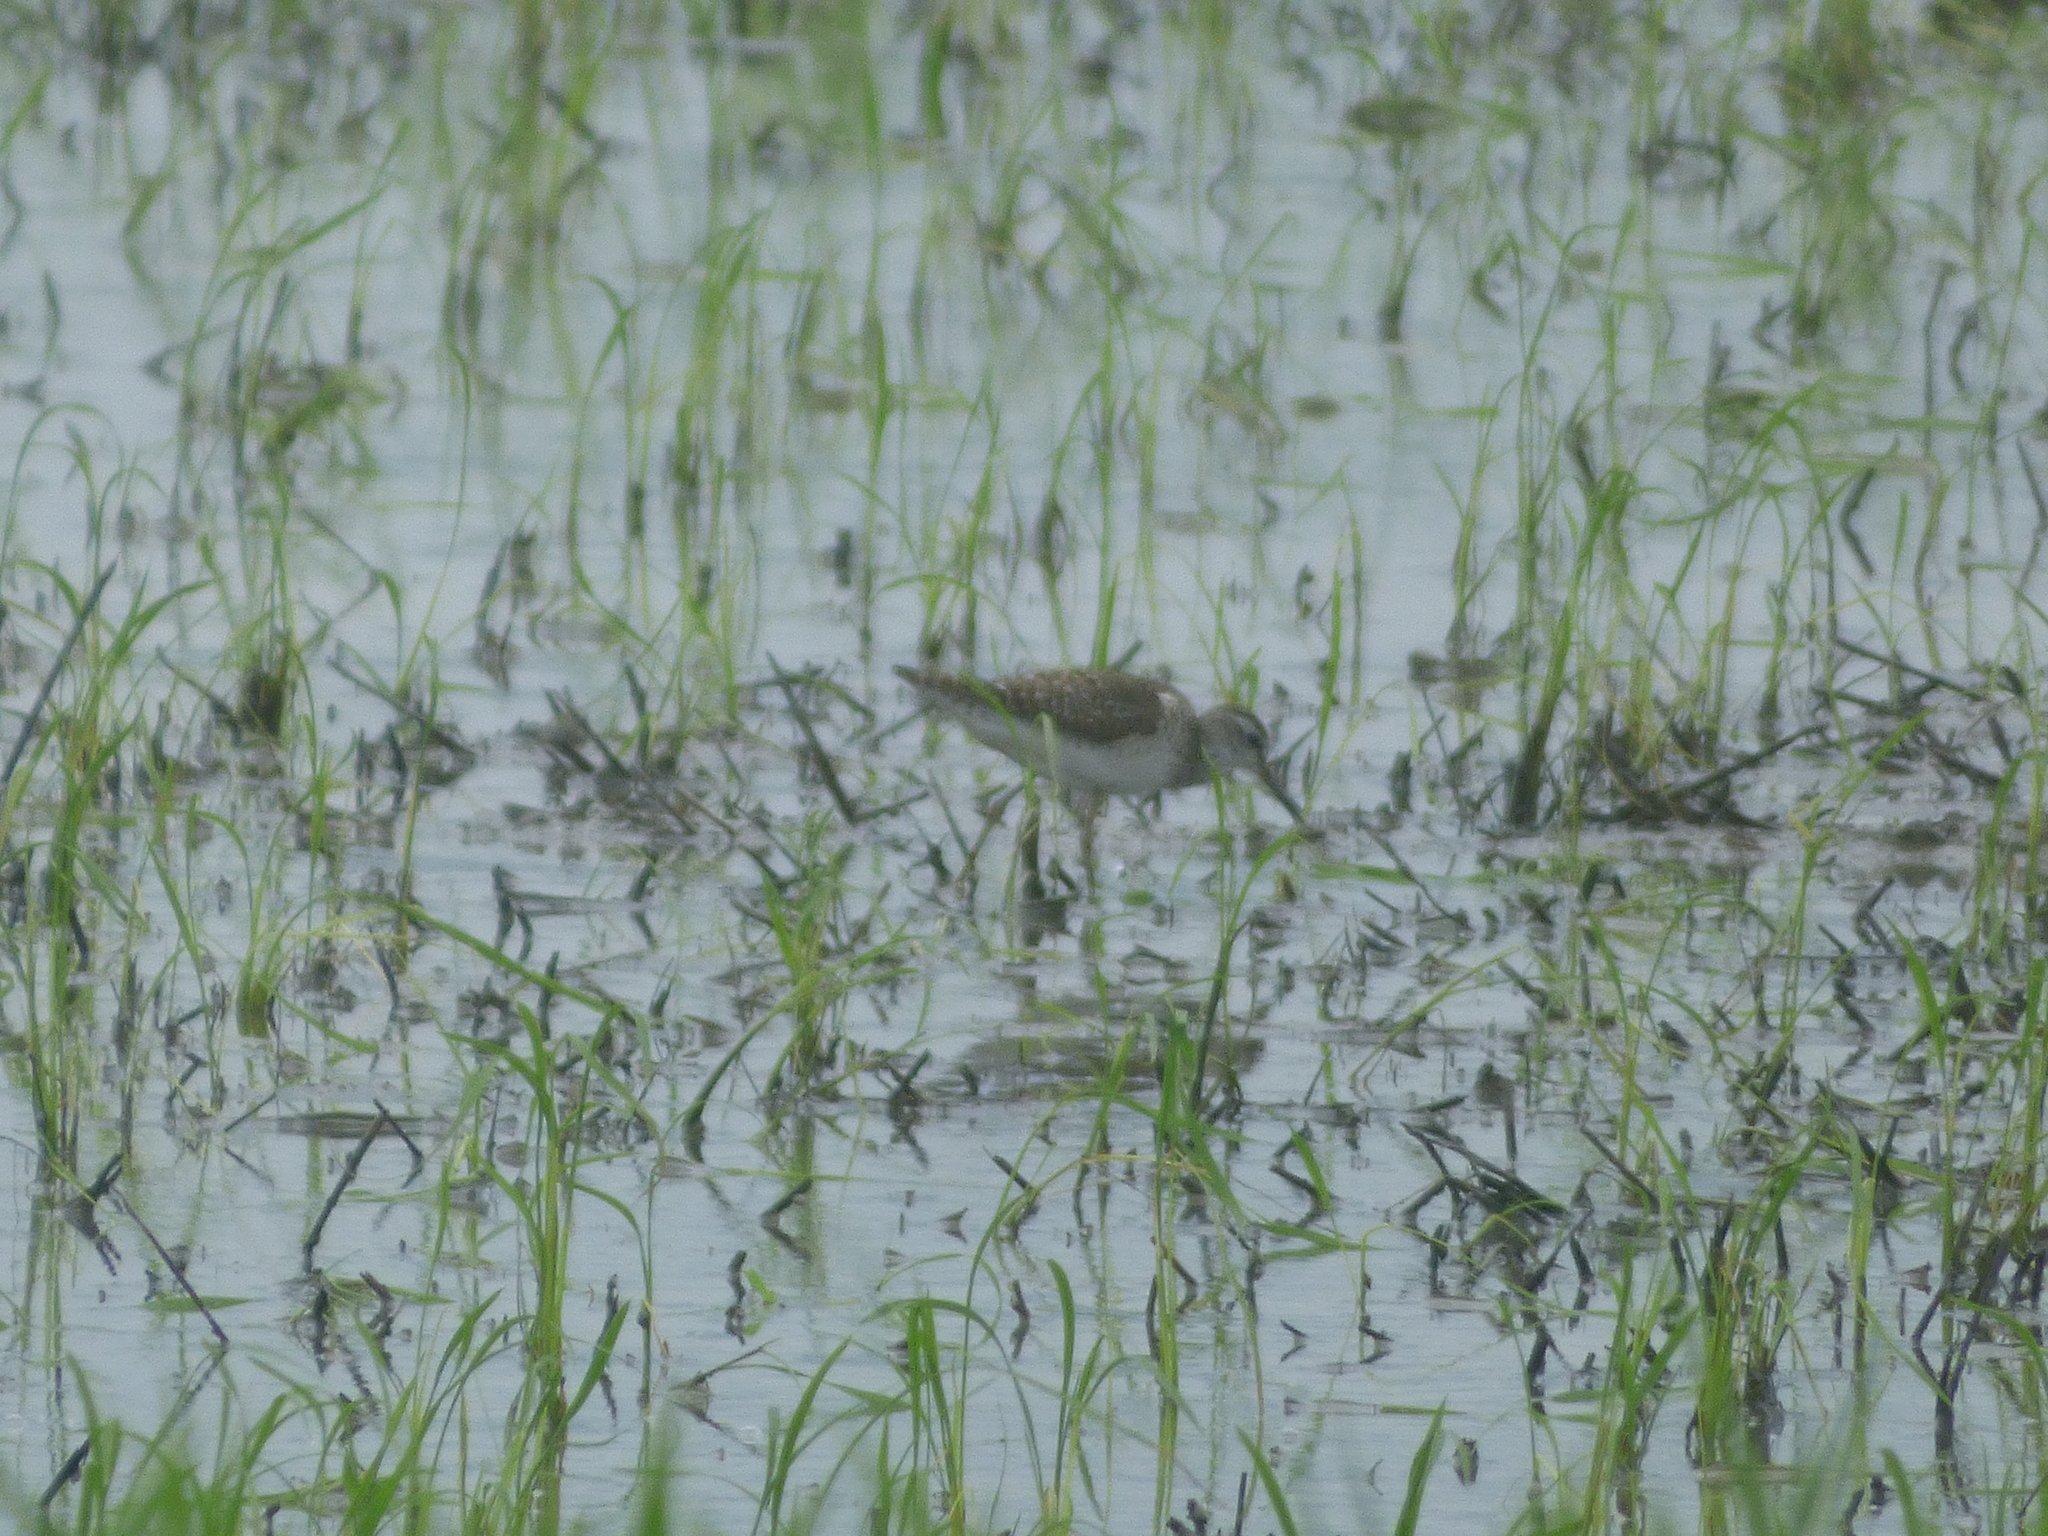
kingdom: Animalia
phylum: Chordata
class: Aves
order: Charadriiformes
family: Scolopacidae
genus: Tringa
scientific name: Tringa glareola
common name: Wood sandpiper
